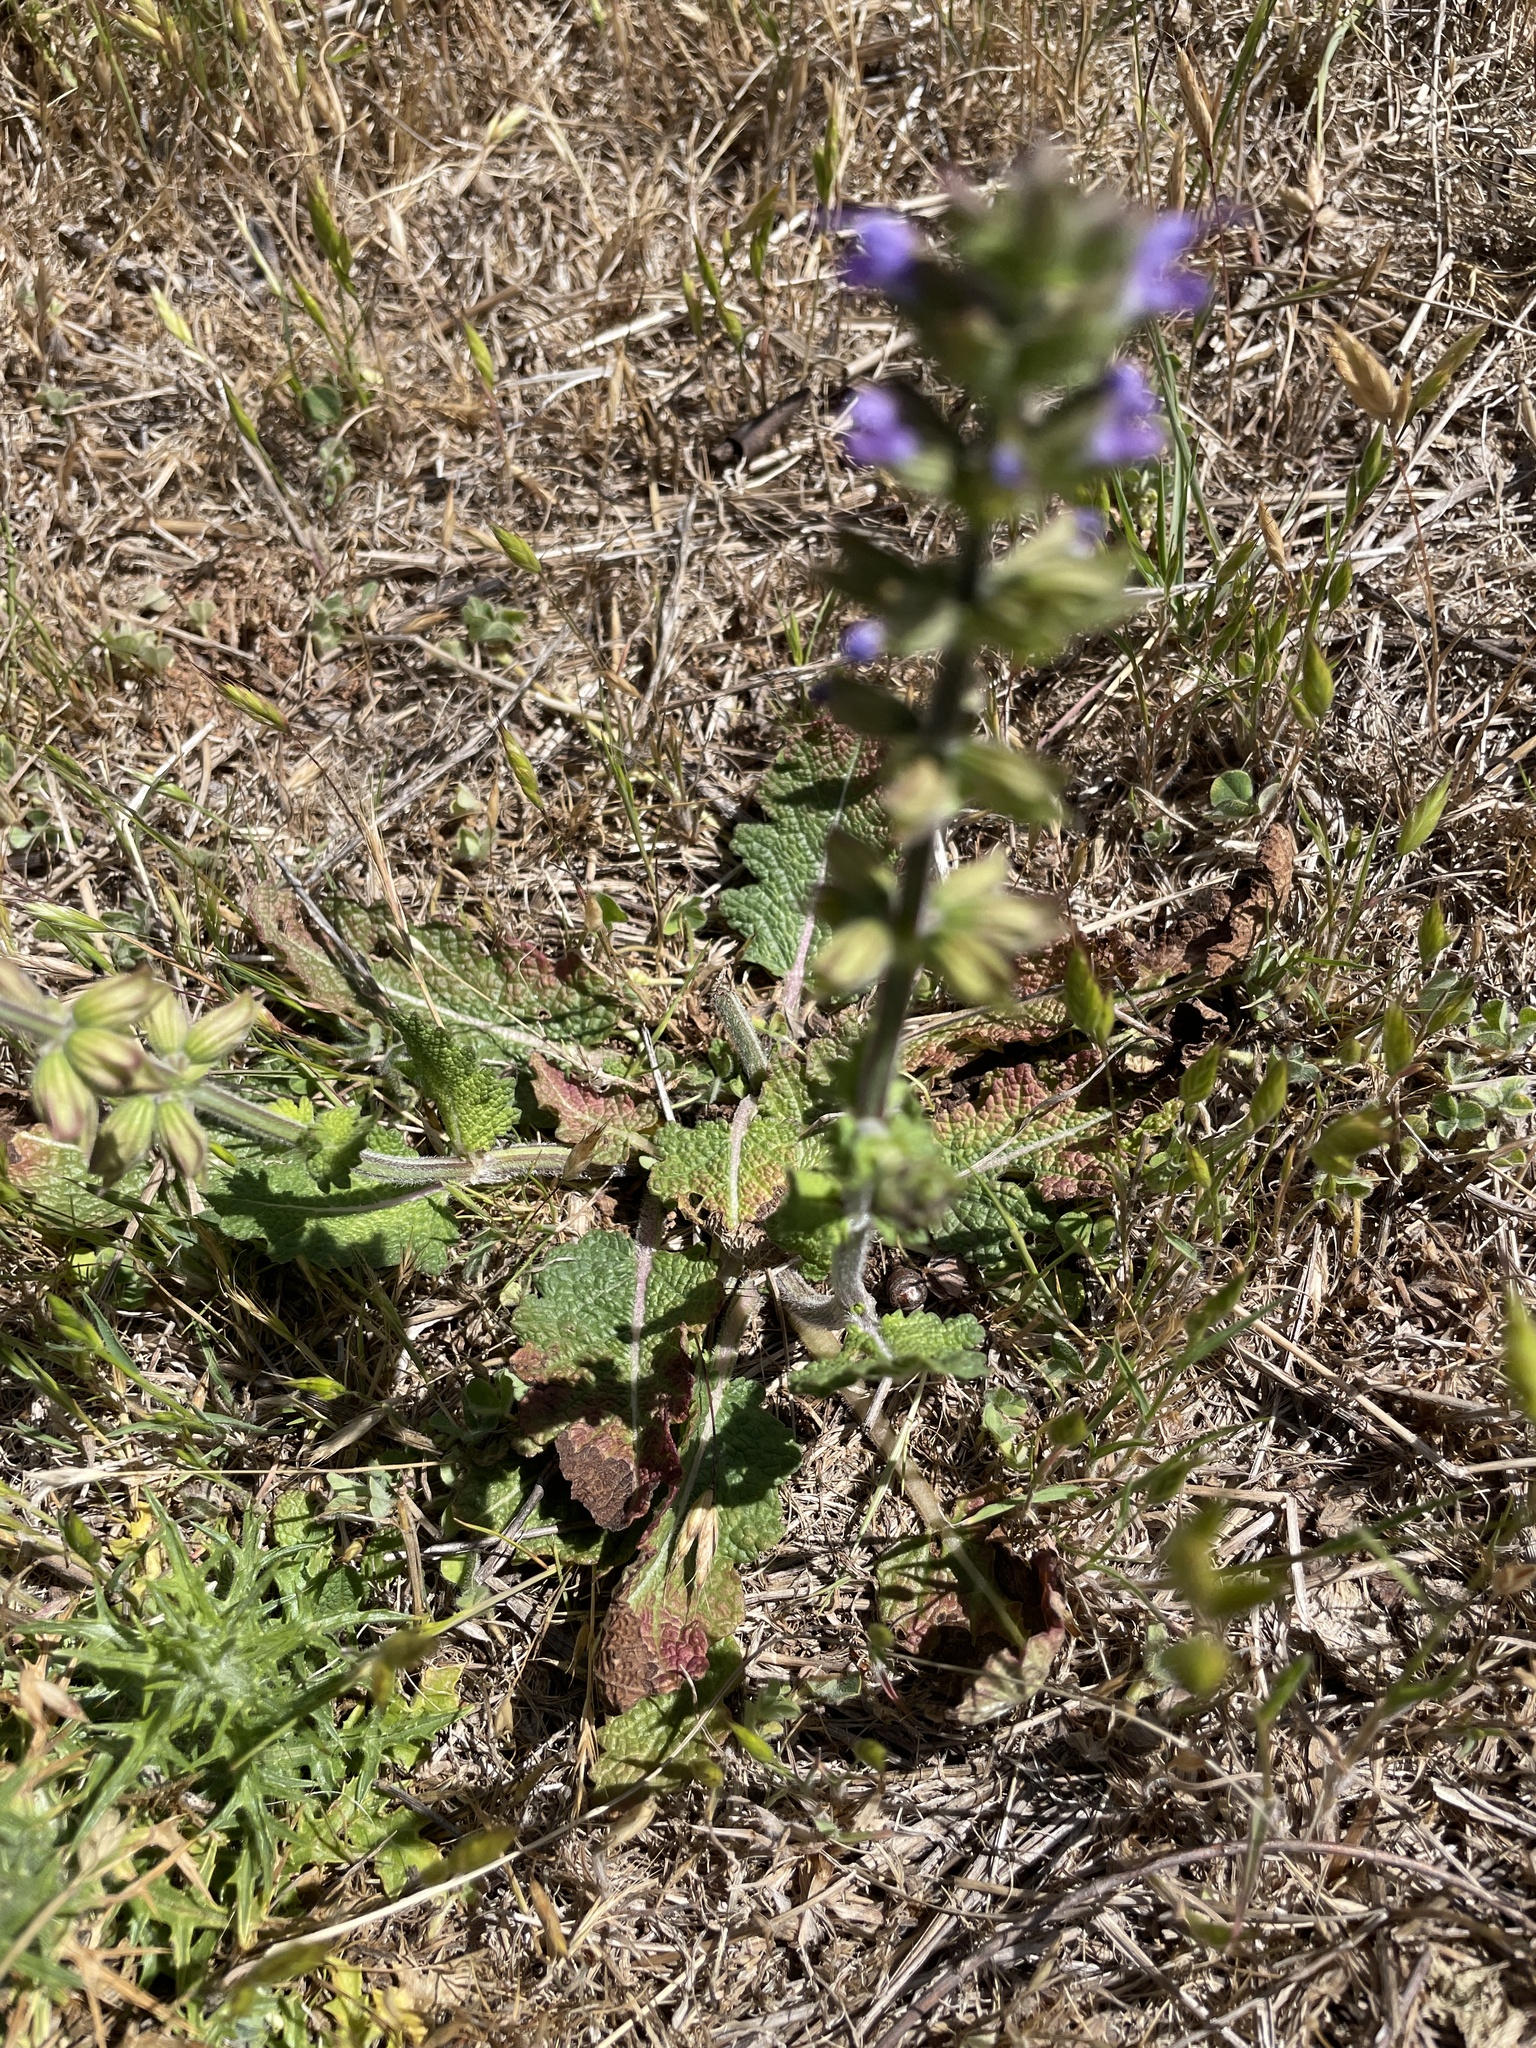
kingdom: Plantae
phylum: Tracheophyta
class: Magnoliopsida
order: Lamiales
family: Lamiaceae
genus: Salvia
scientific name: Salvia verbenaca
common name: Wild clary
